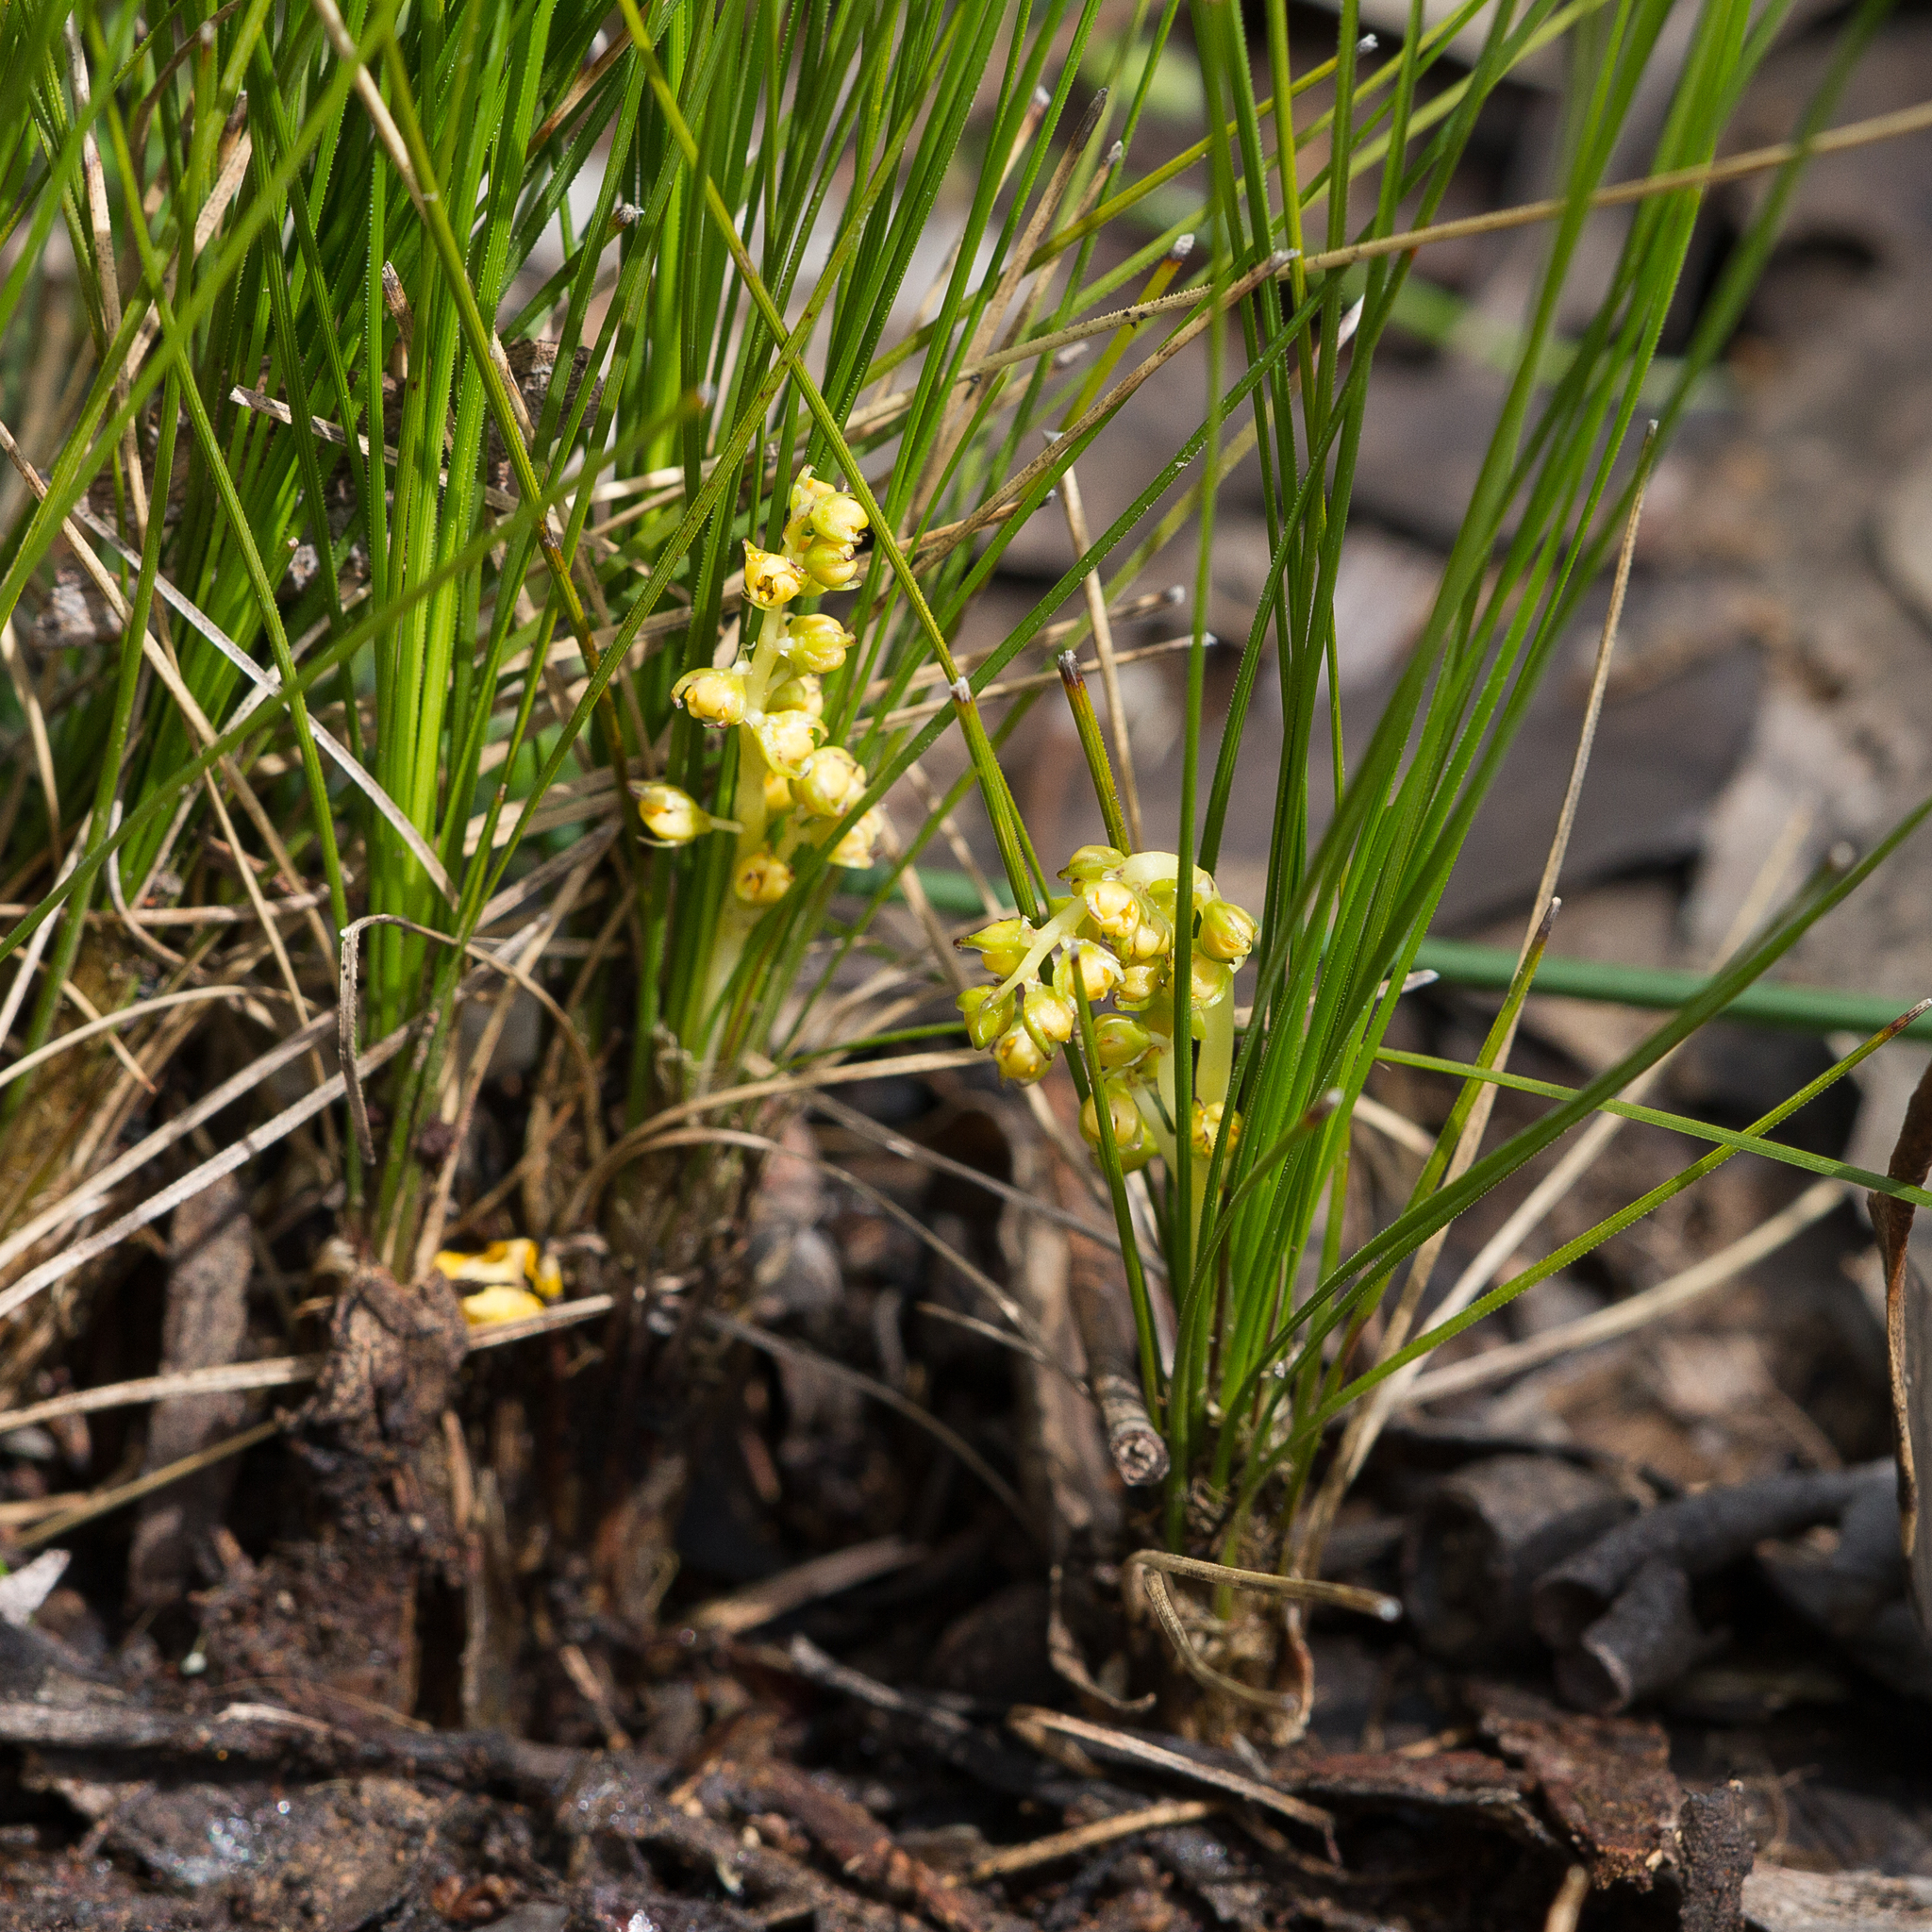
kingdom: Plantae
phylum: Tracheophyta
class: Liliopsida
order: Asparagales
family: Asparagaceae
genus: Lomandra
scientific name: Lomandra fibrata
